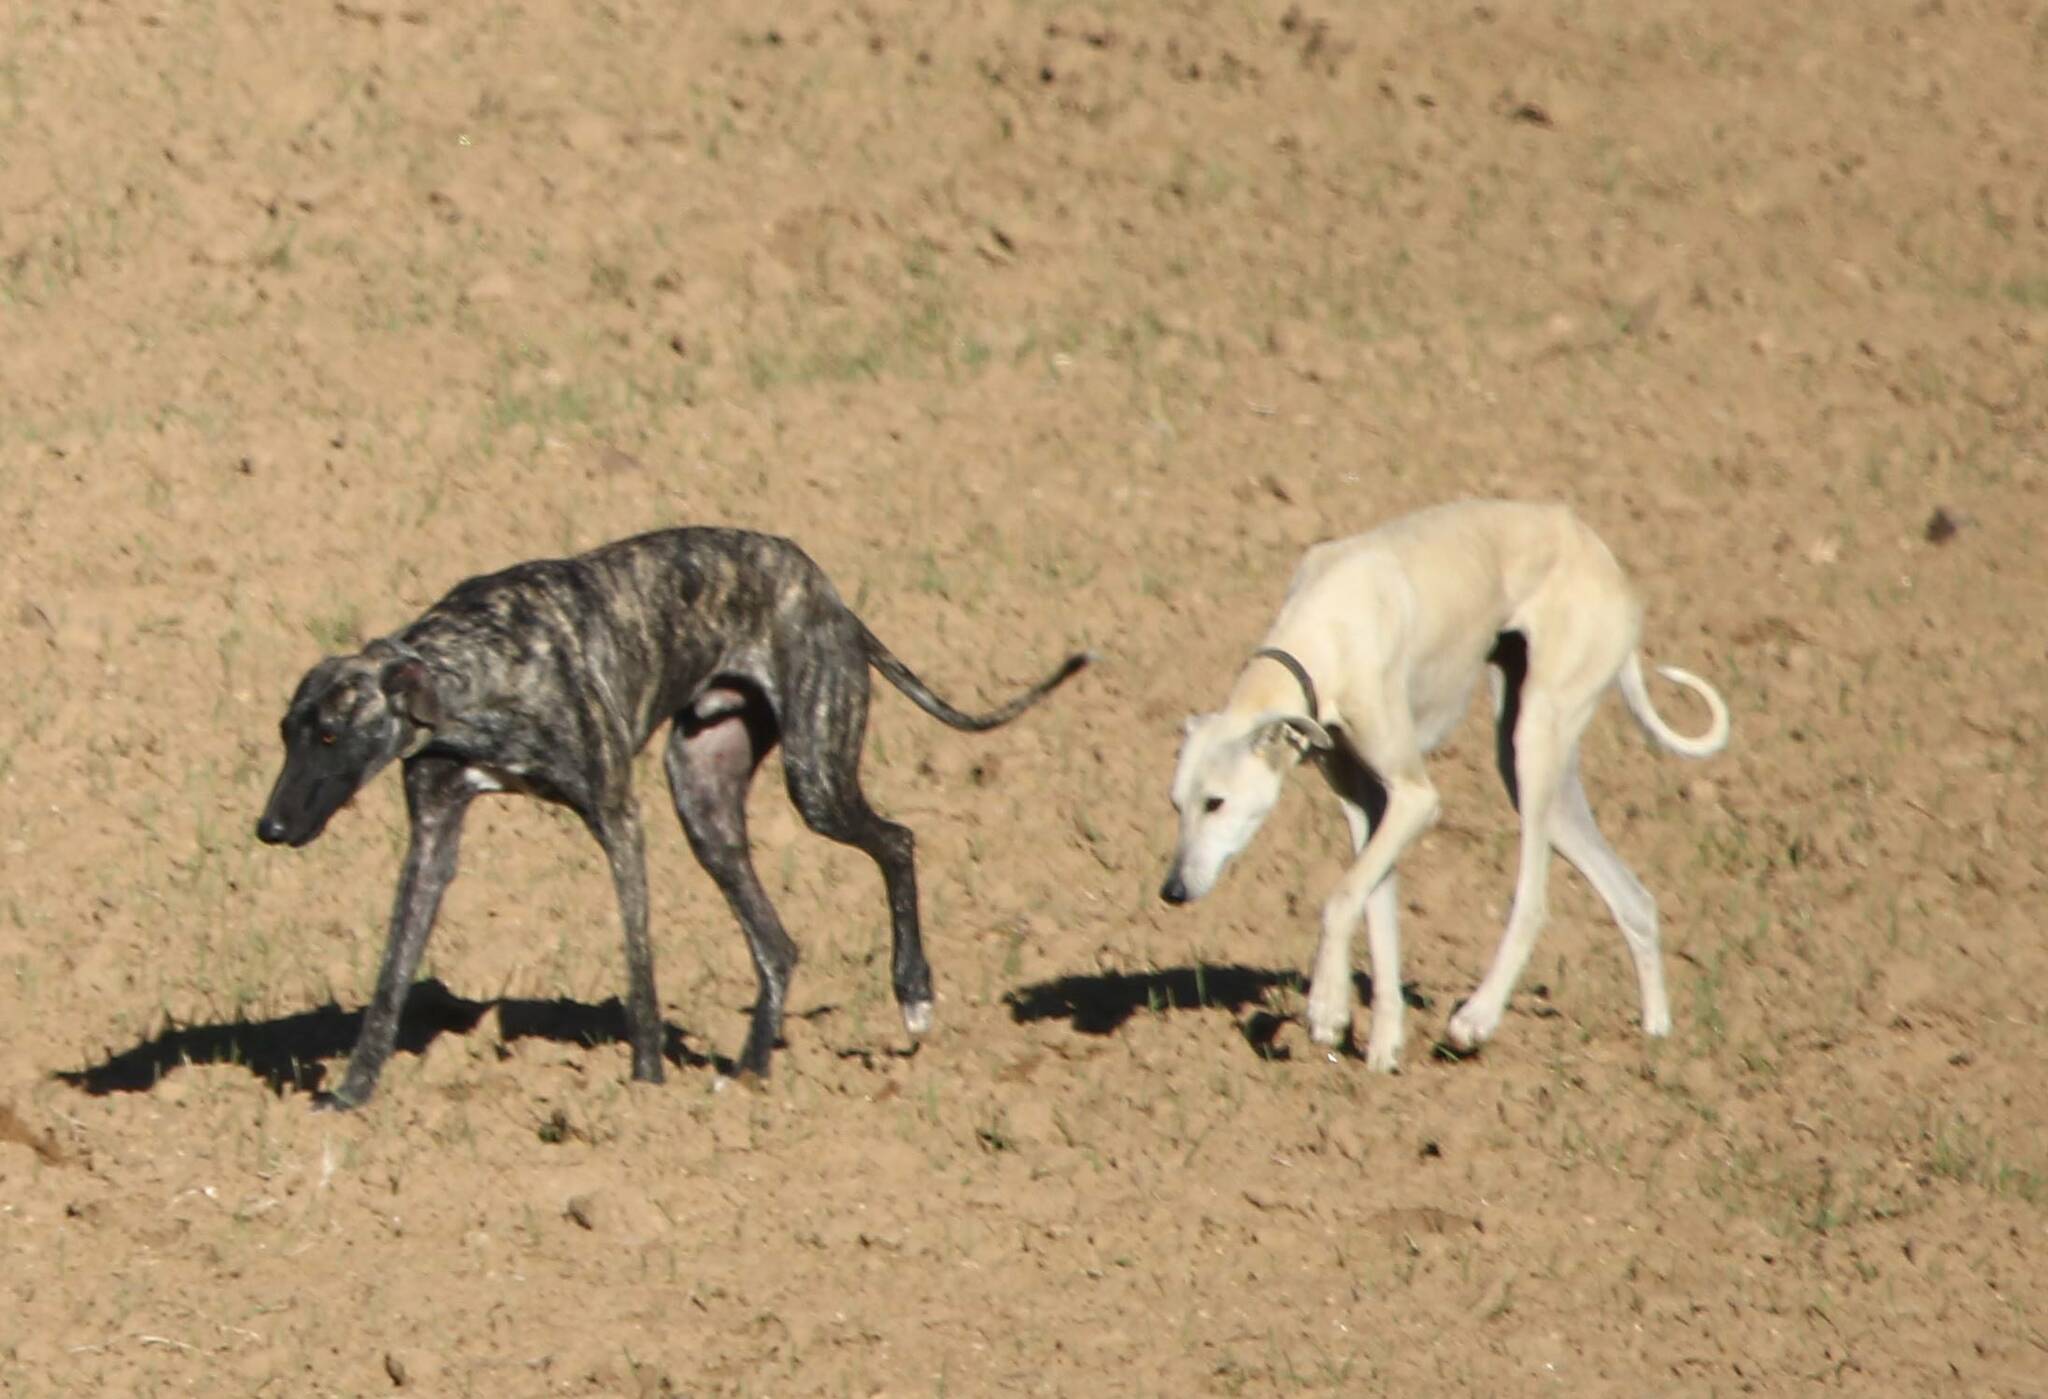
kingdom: Animalia
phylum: Chordata
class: Mammalia
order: Carnivora
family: Canidae
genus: Canis
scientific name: Canis lupus
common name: Gray wolf
